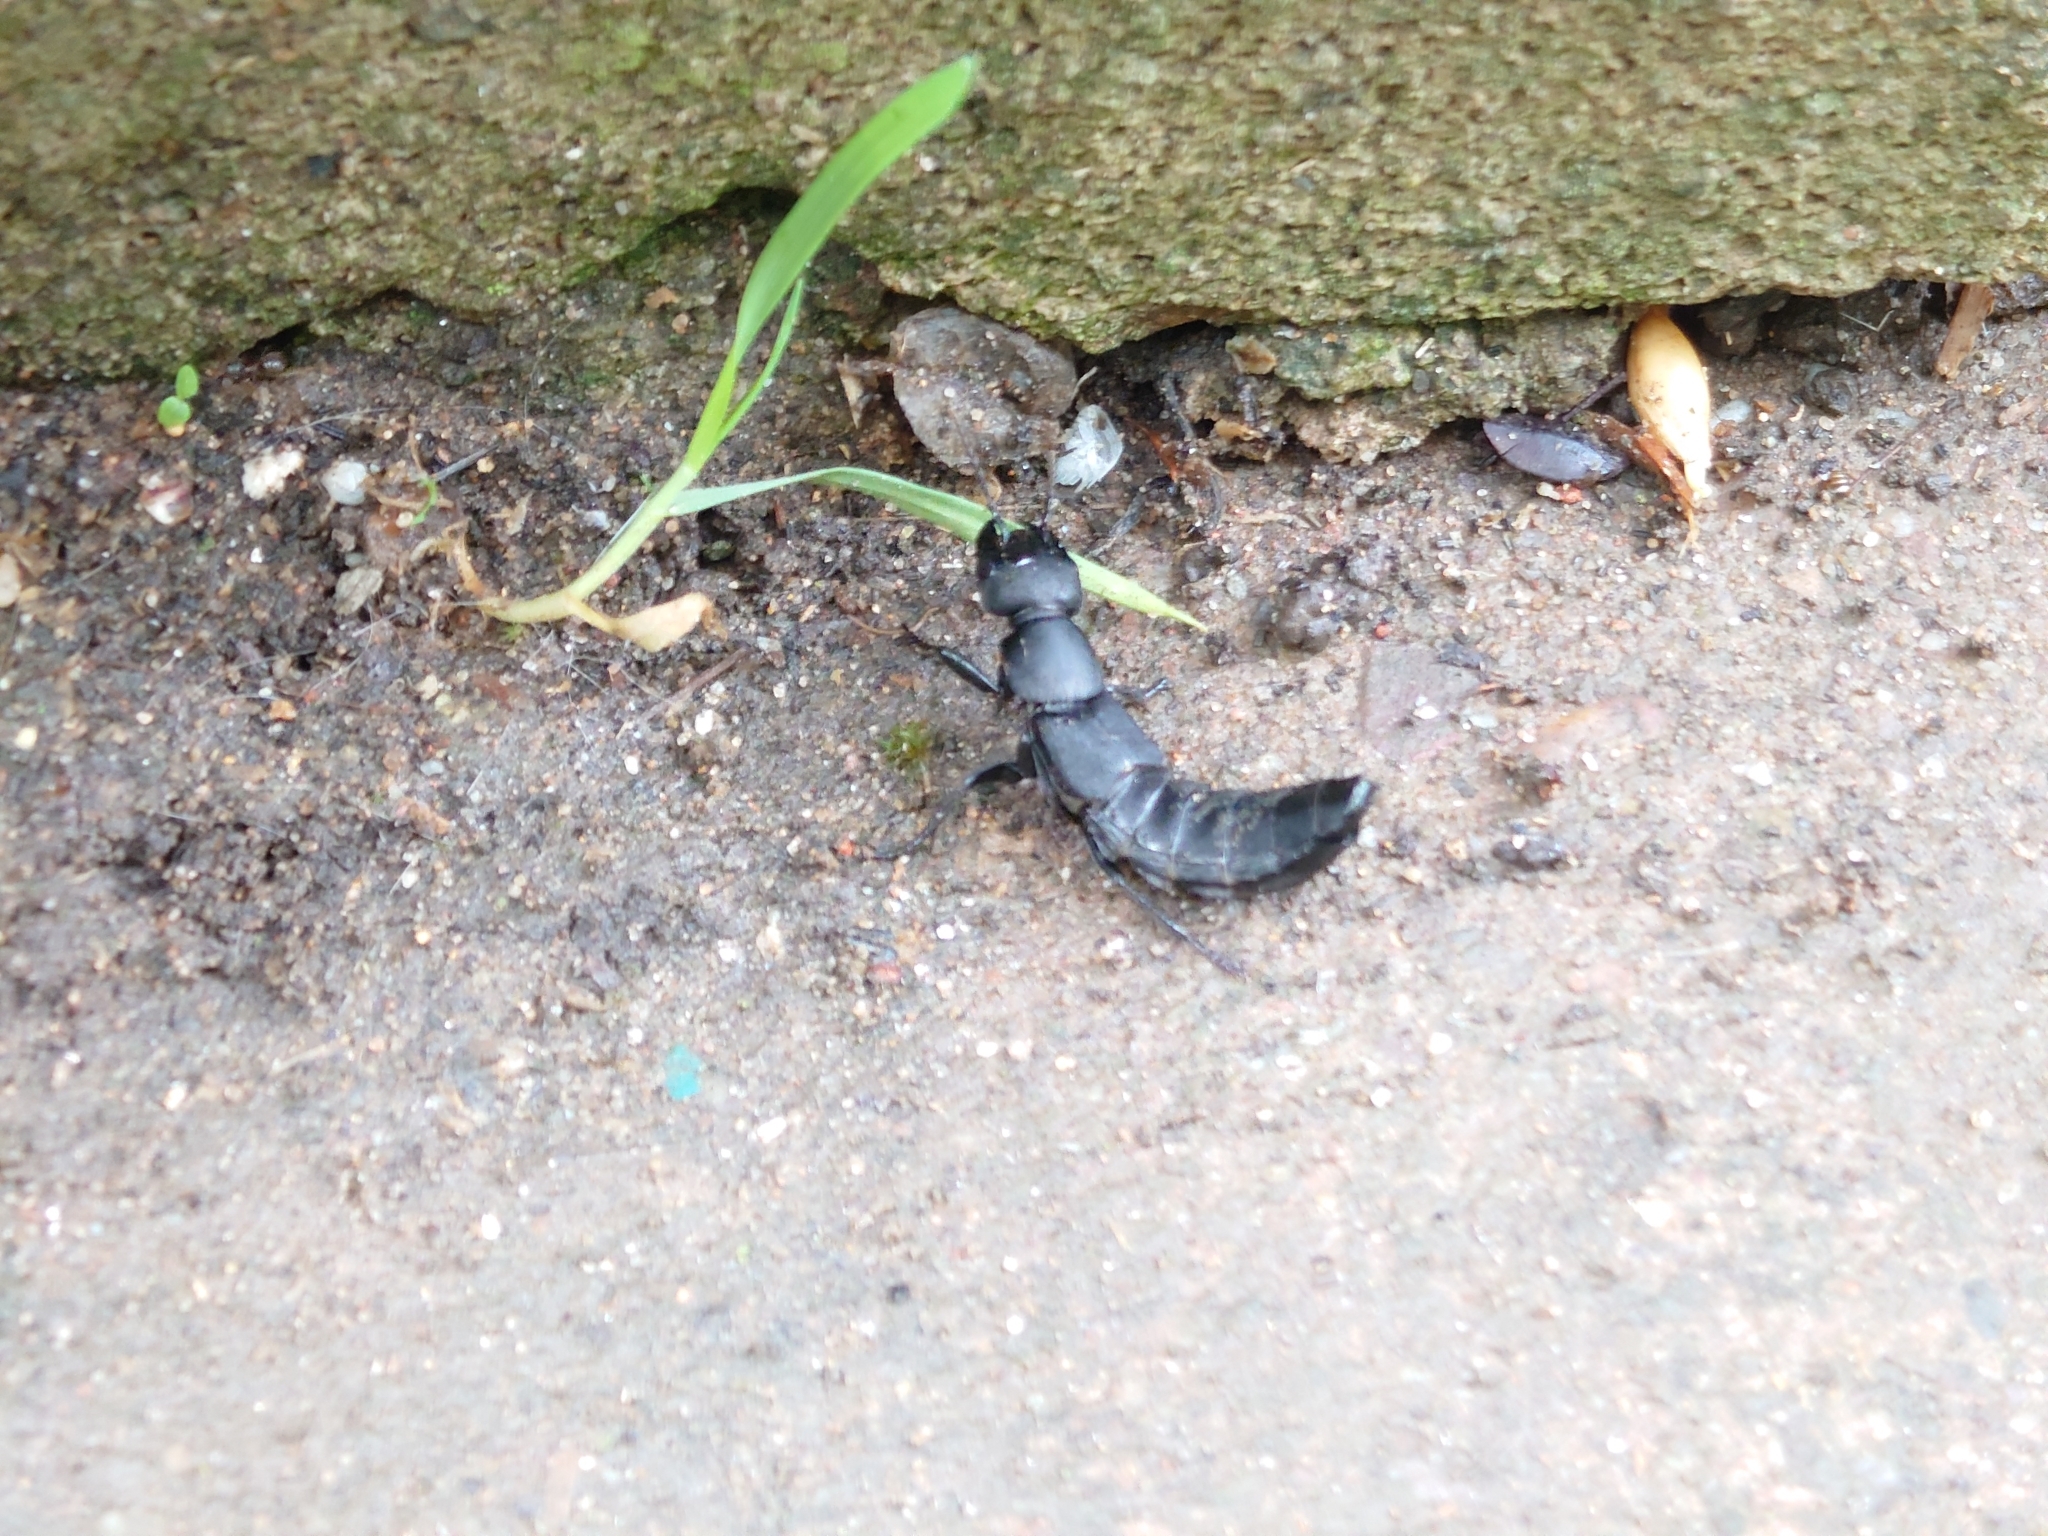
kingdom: Animalia
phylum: Arthropoda
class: Insecta
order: Coleoptera
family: Staphylinidae
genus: Ocypus
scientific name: Ocypus olens
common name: Devil's coach-horse
